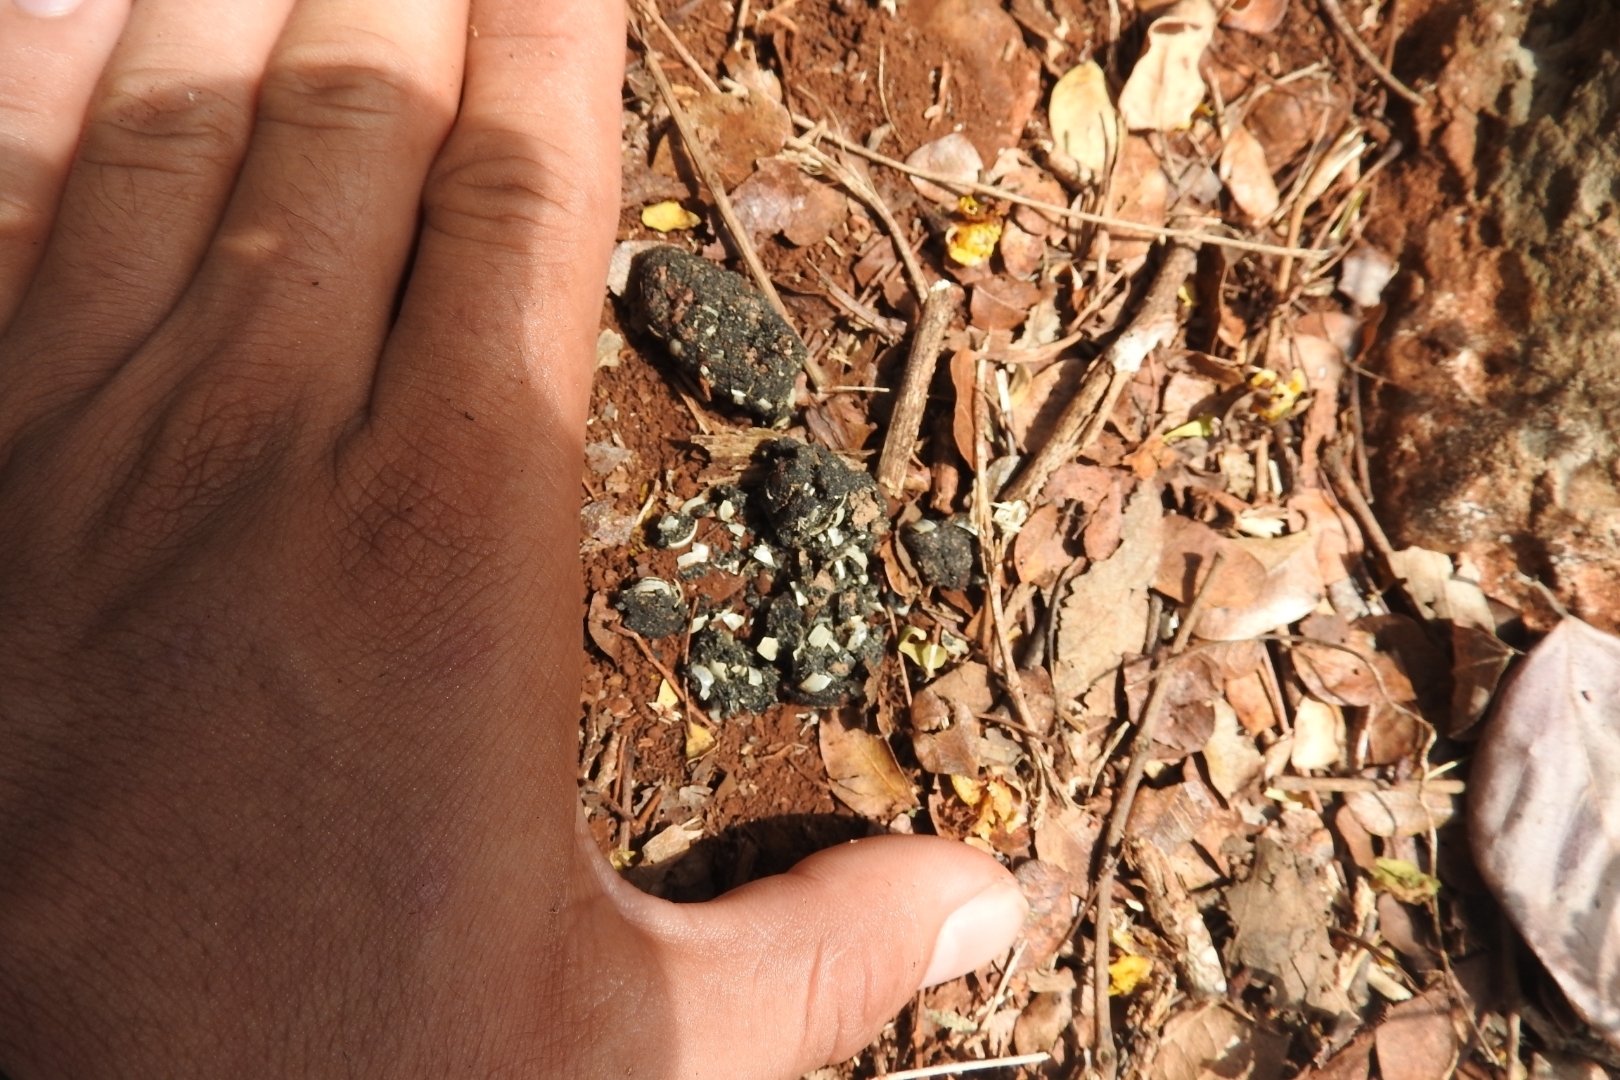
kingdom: Animalia
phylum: Chordata
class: Mammalia
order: Carnivora
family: Procyonidae
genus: Procyon
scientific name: Procyon lotor
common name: Raccoon
